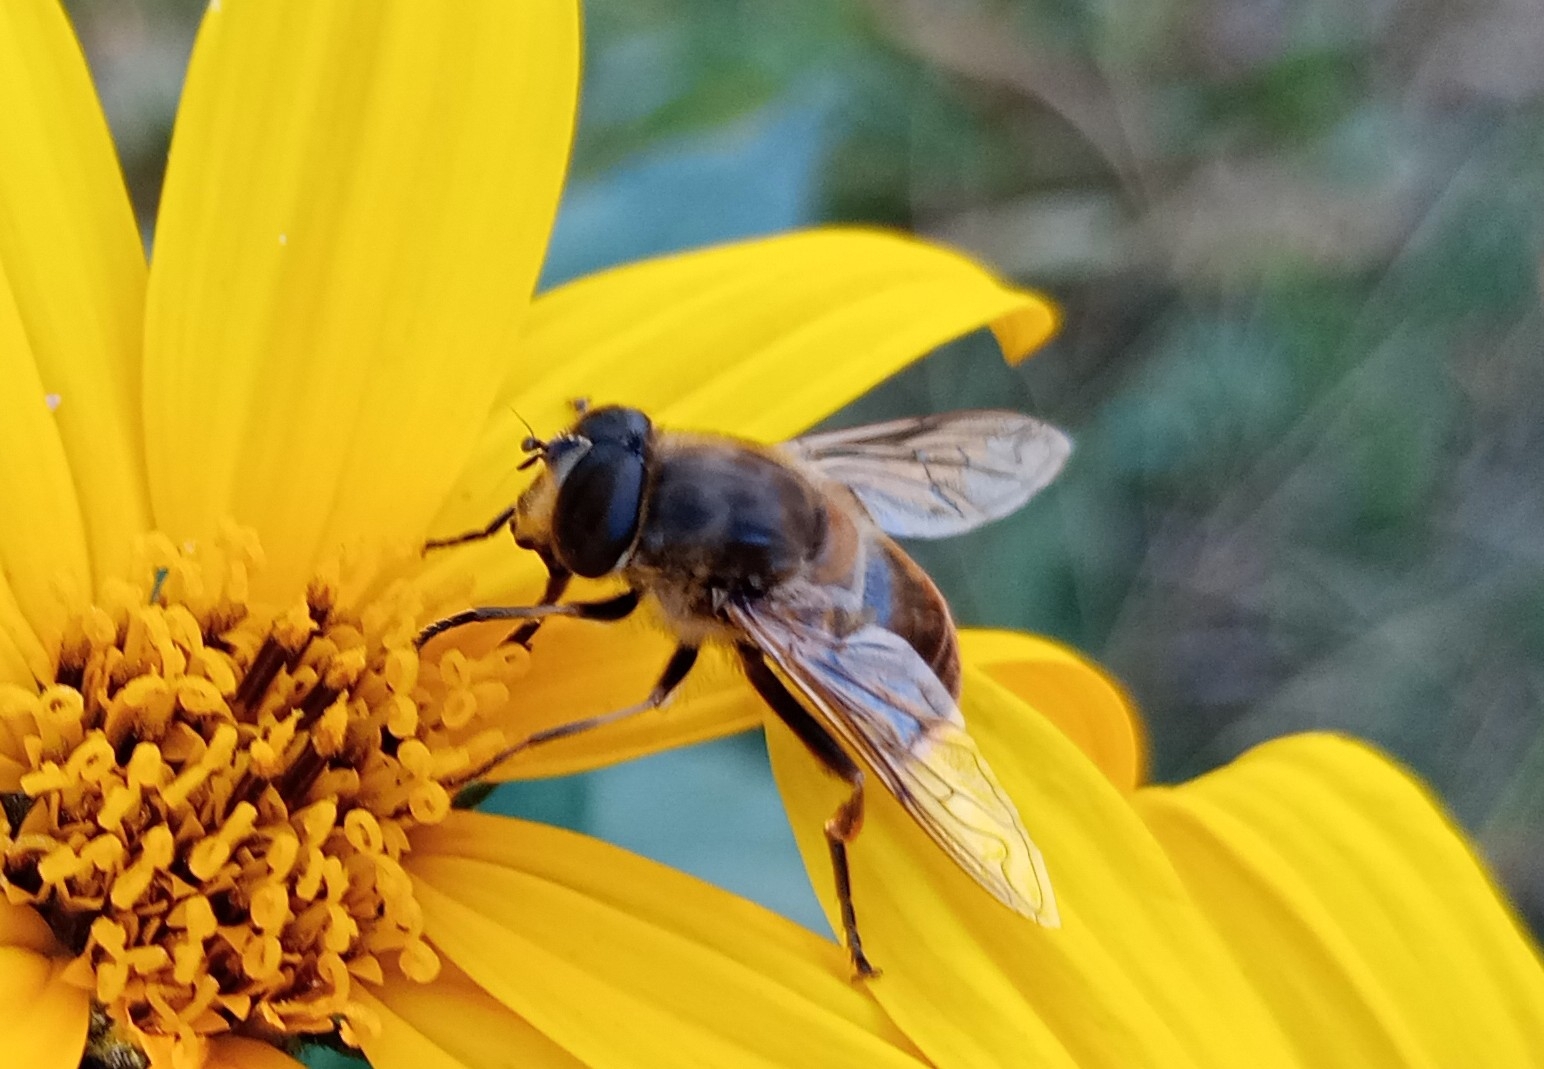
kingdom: Animalia
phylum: Arthropoda
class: Insecta
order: Diptera
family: Syrphidae
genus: Eristalis
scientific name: Eristalis tenax
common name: Drone fly
